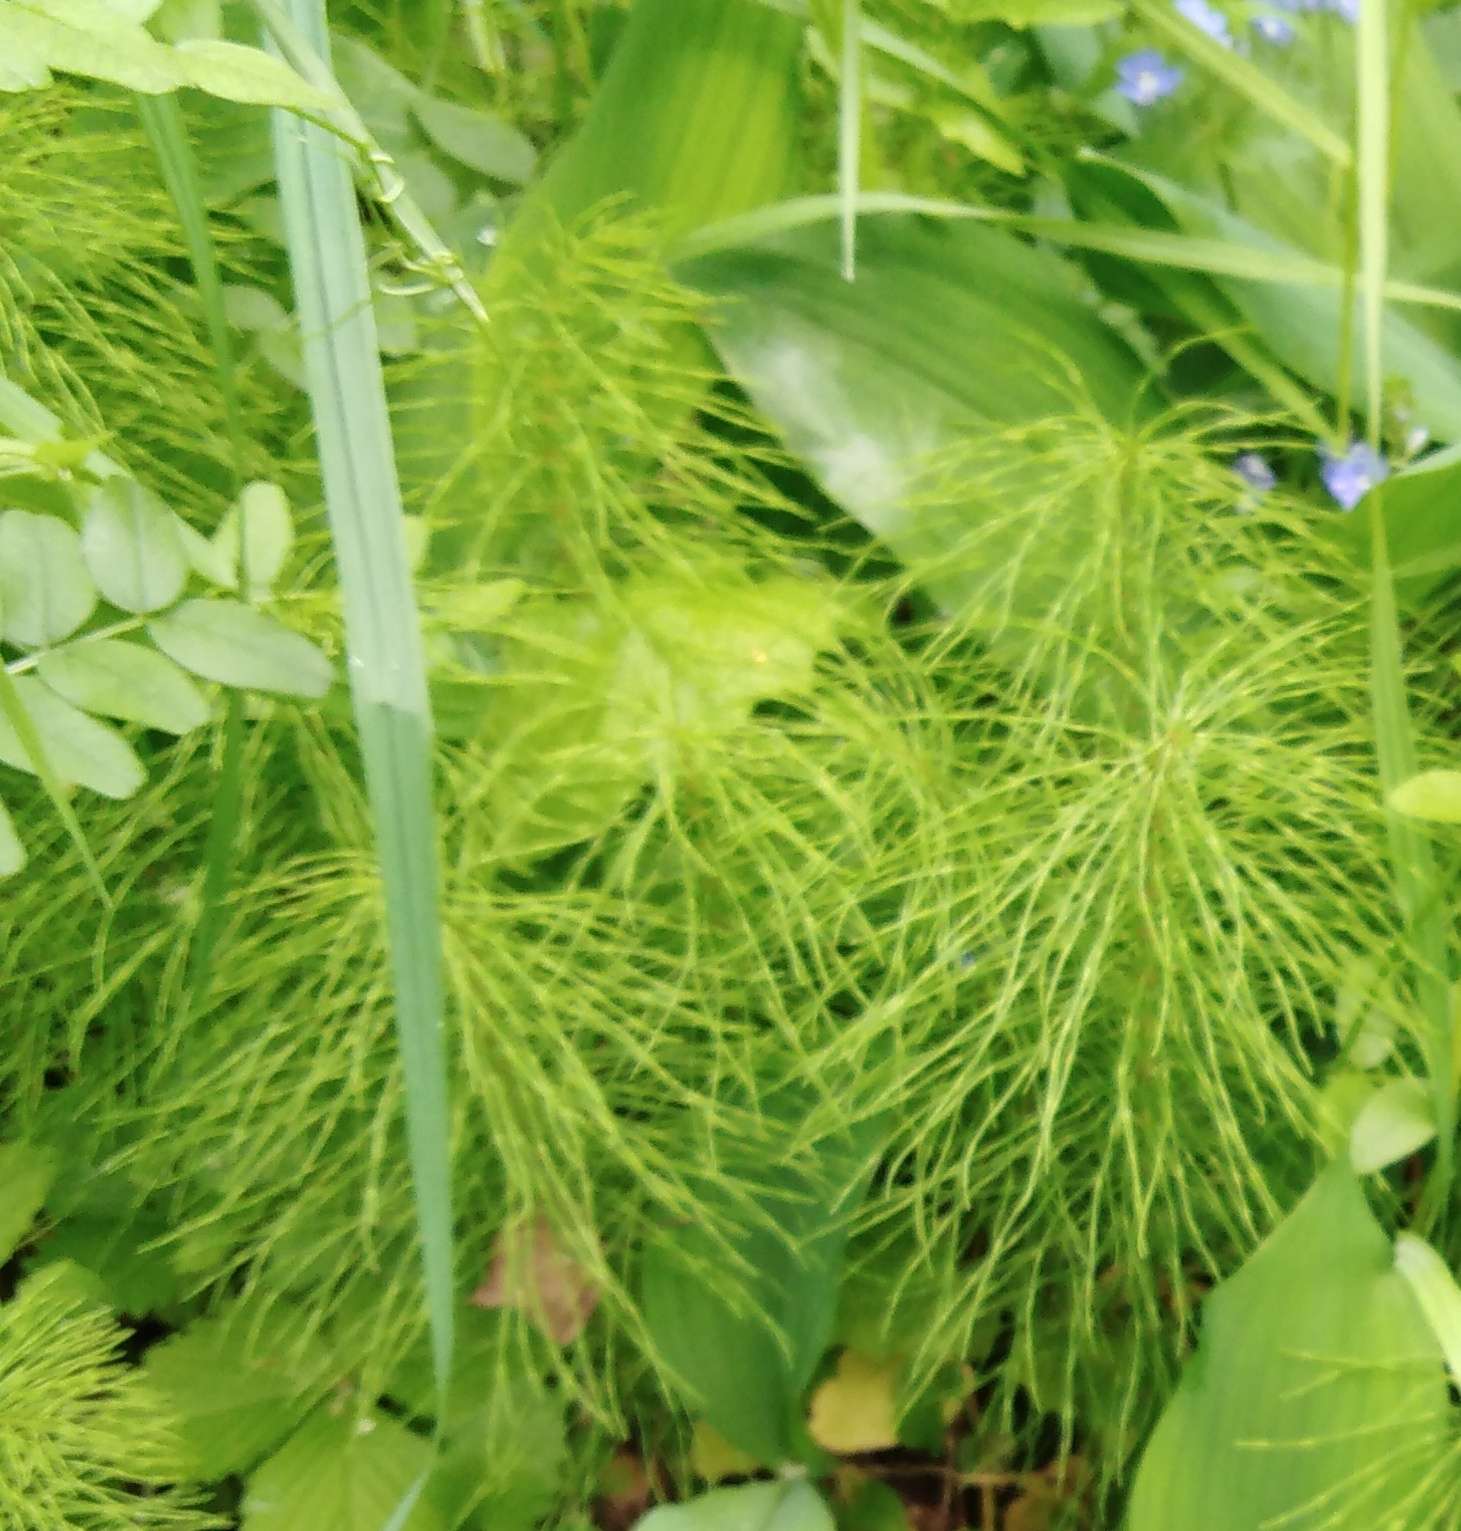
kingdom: Plantae
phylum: Tracheophyta
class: Polypodiopsida
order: Equisetales
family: Equisetaceae
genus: Equisetum
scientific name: Equisetum sylvaticum
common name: Wood horsetail
